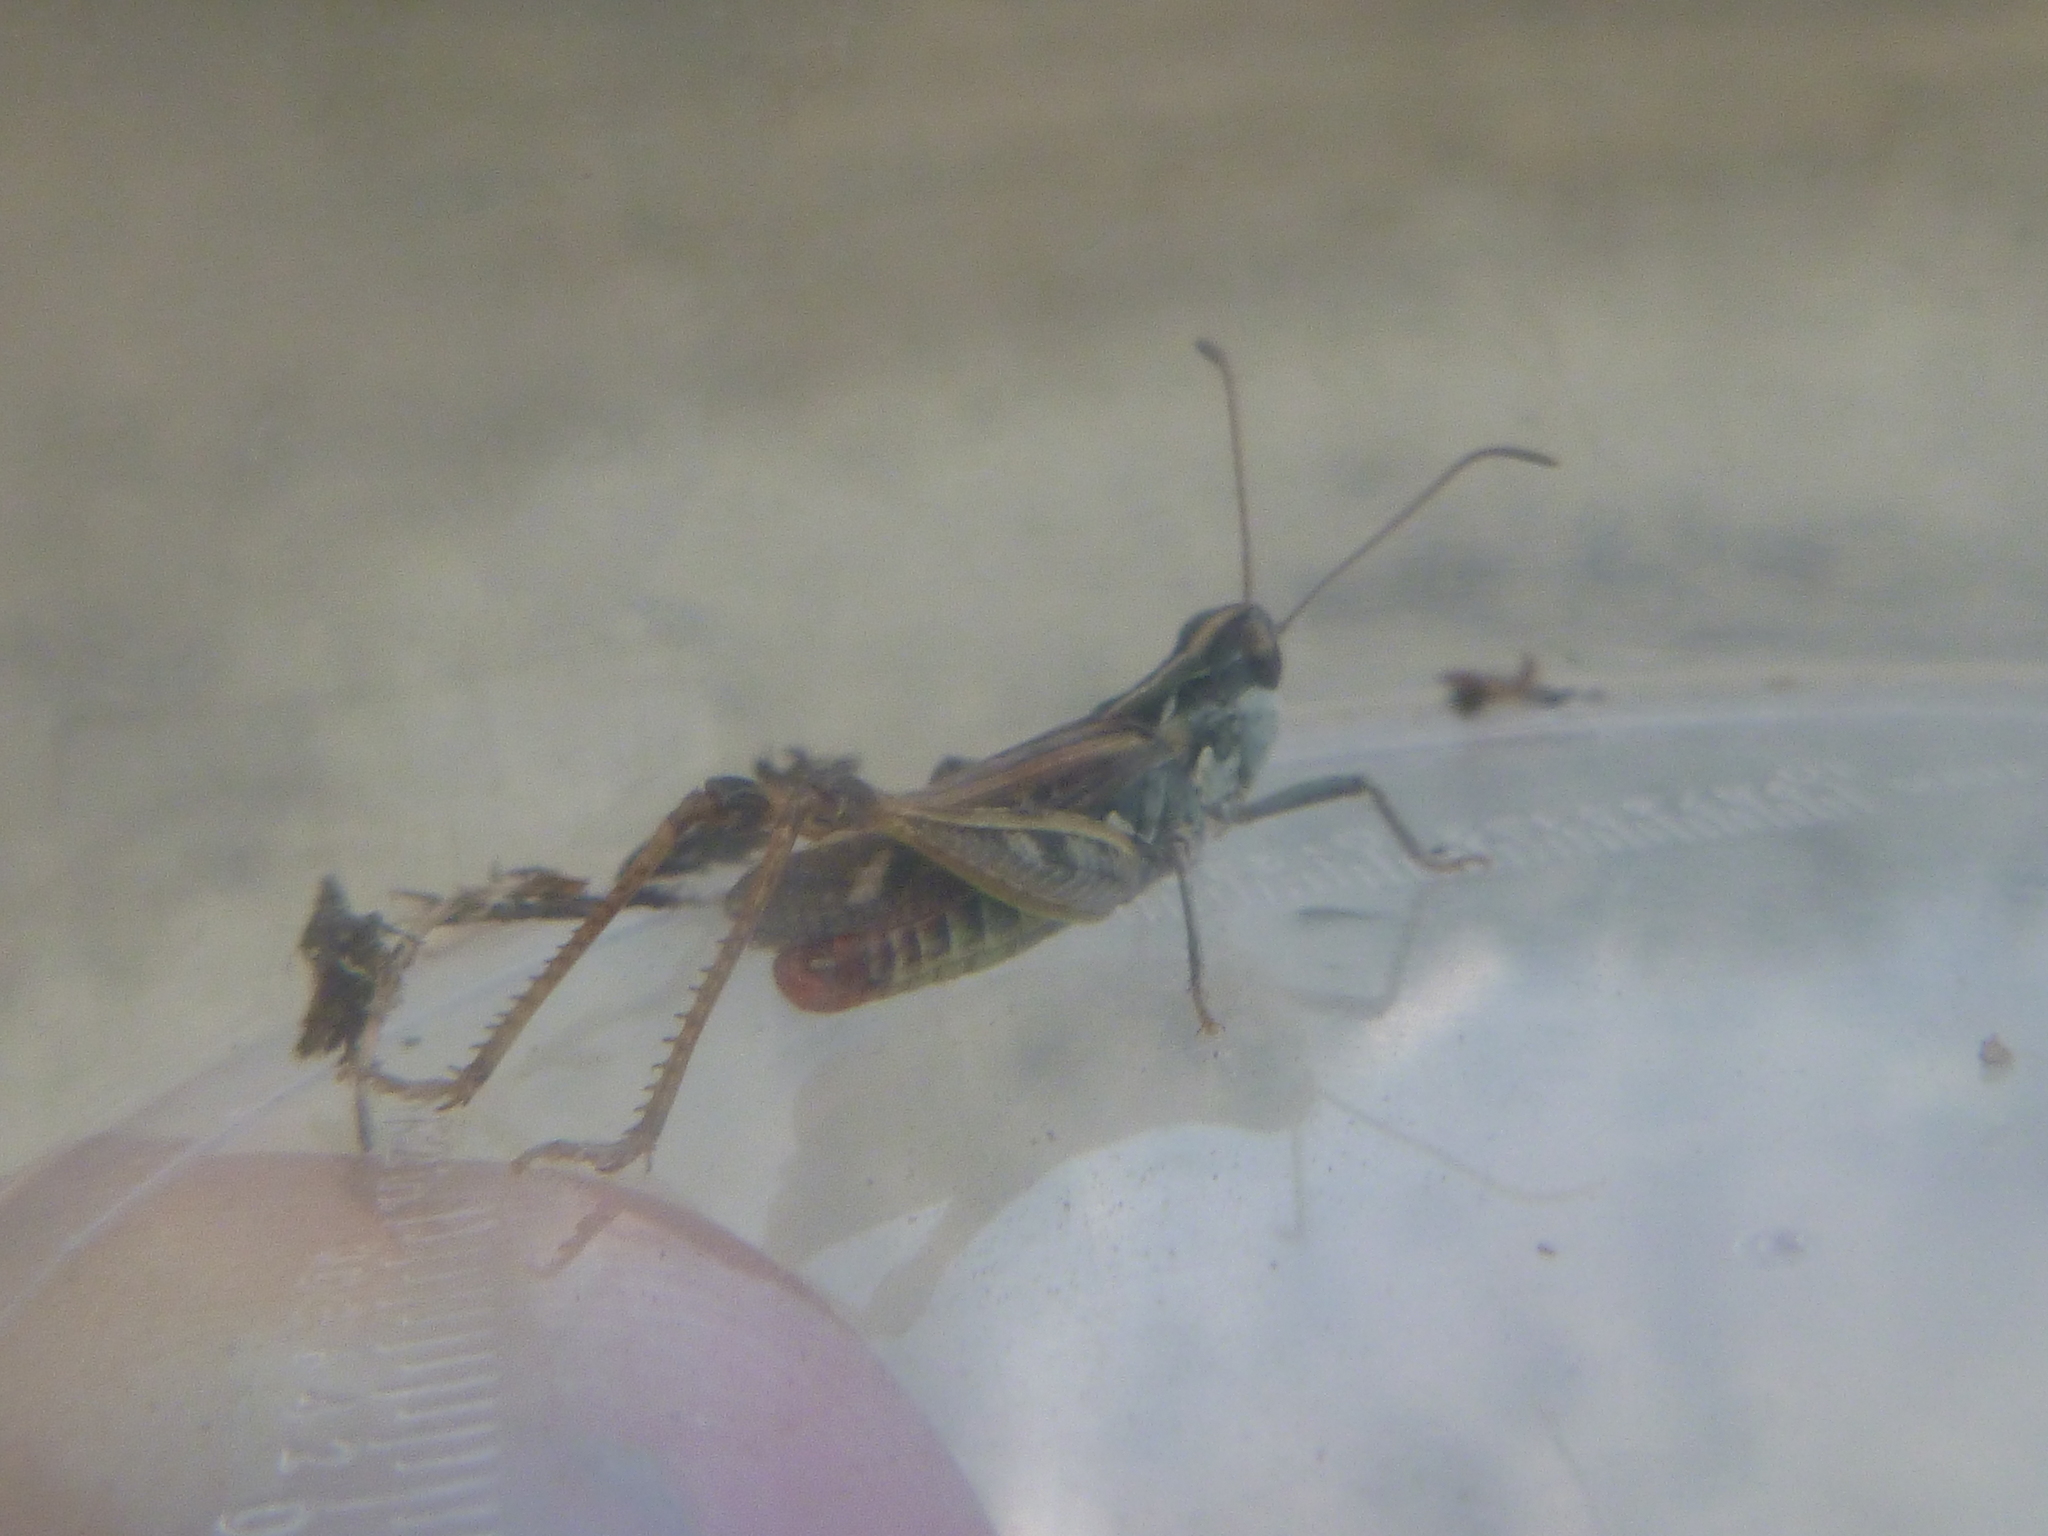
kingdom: Animalia
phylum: Arthropoda
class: Insecta
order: Orthoptera
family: Acrididae
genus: Myrmeleotettix
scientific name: Myrmeleotettix maculatus
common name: Mottled grasshopper
